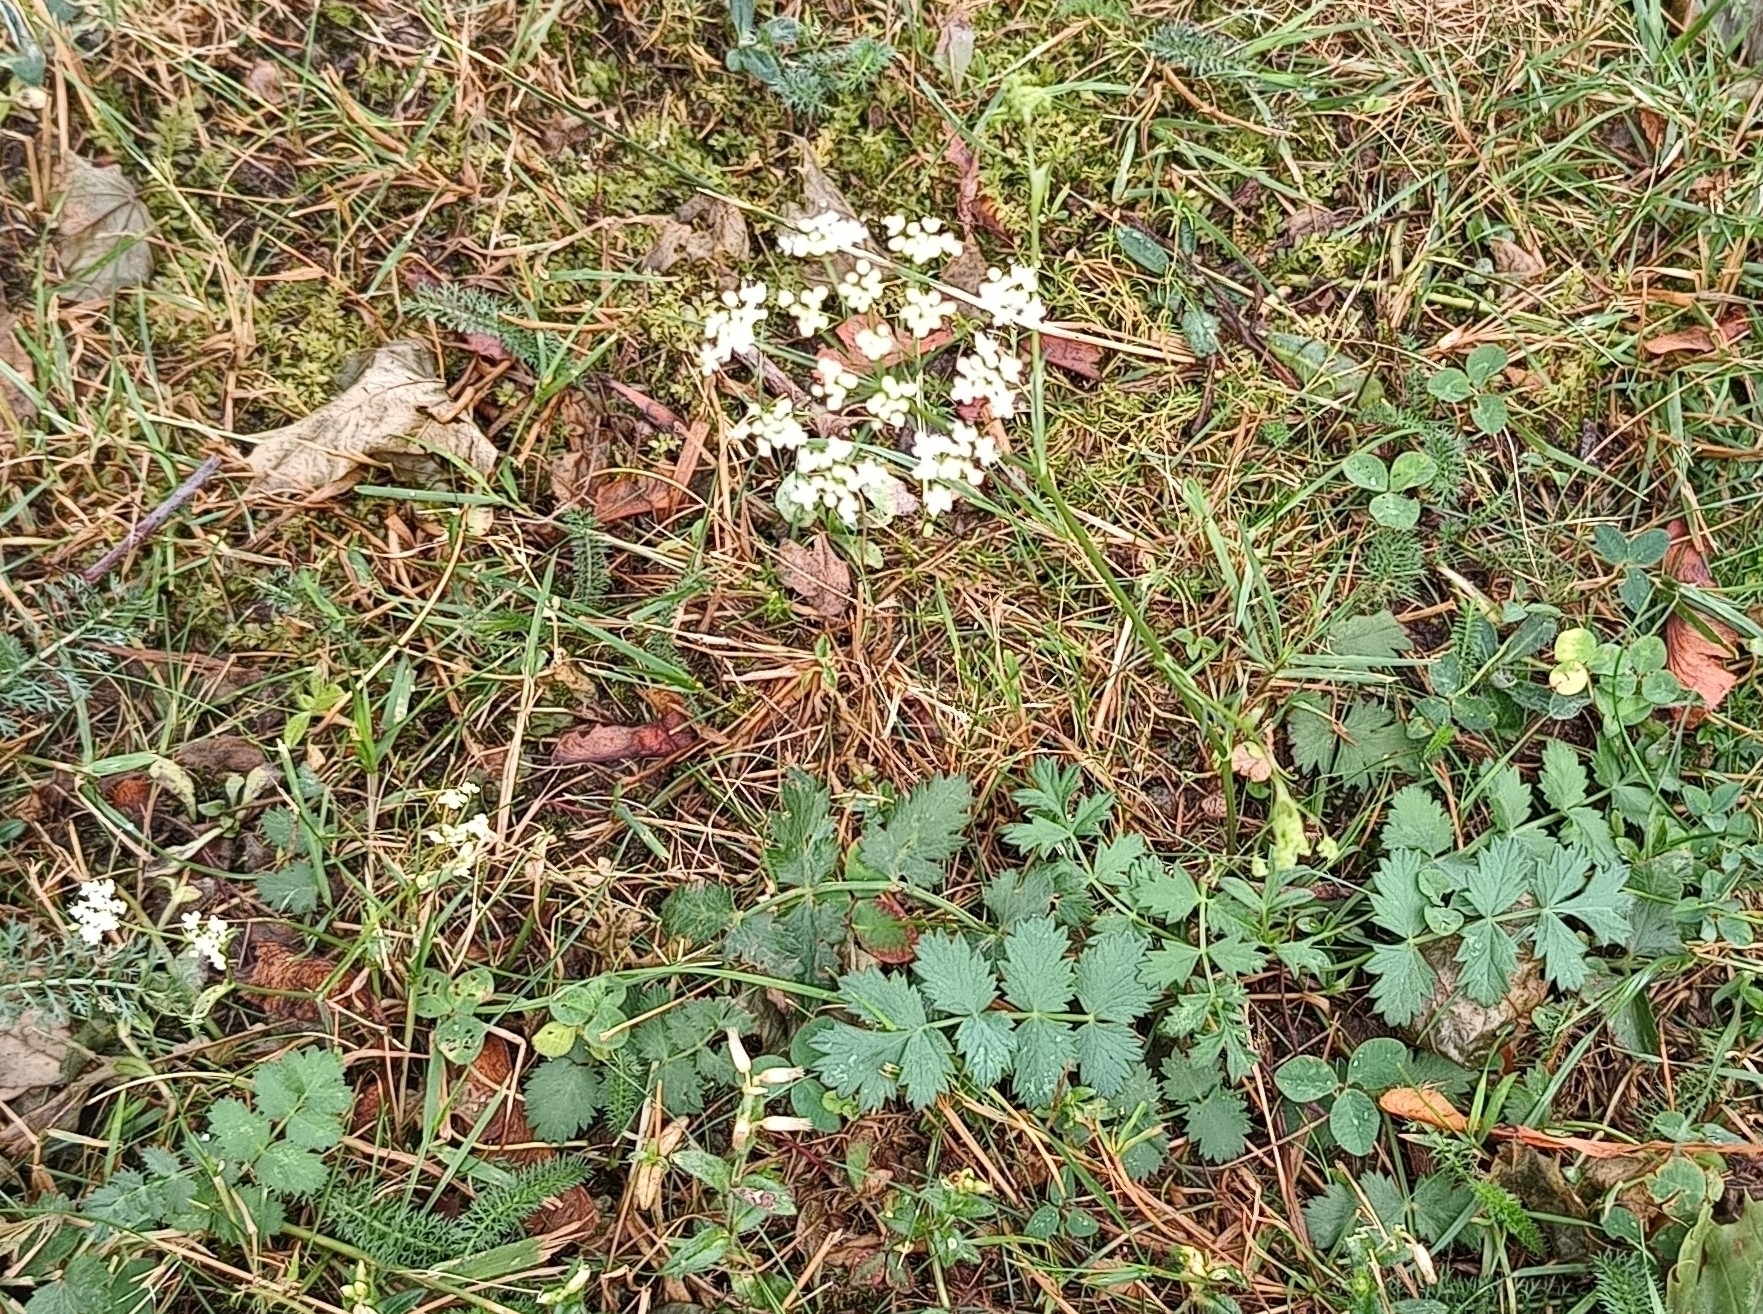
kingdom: Plantae
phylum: Tracheophyta
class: Magnoliopsida
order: Apiales
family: Apiaceae
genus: Pimpinella
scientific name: Pimpinella saxifraga
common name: Burnet-saxifrage
